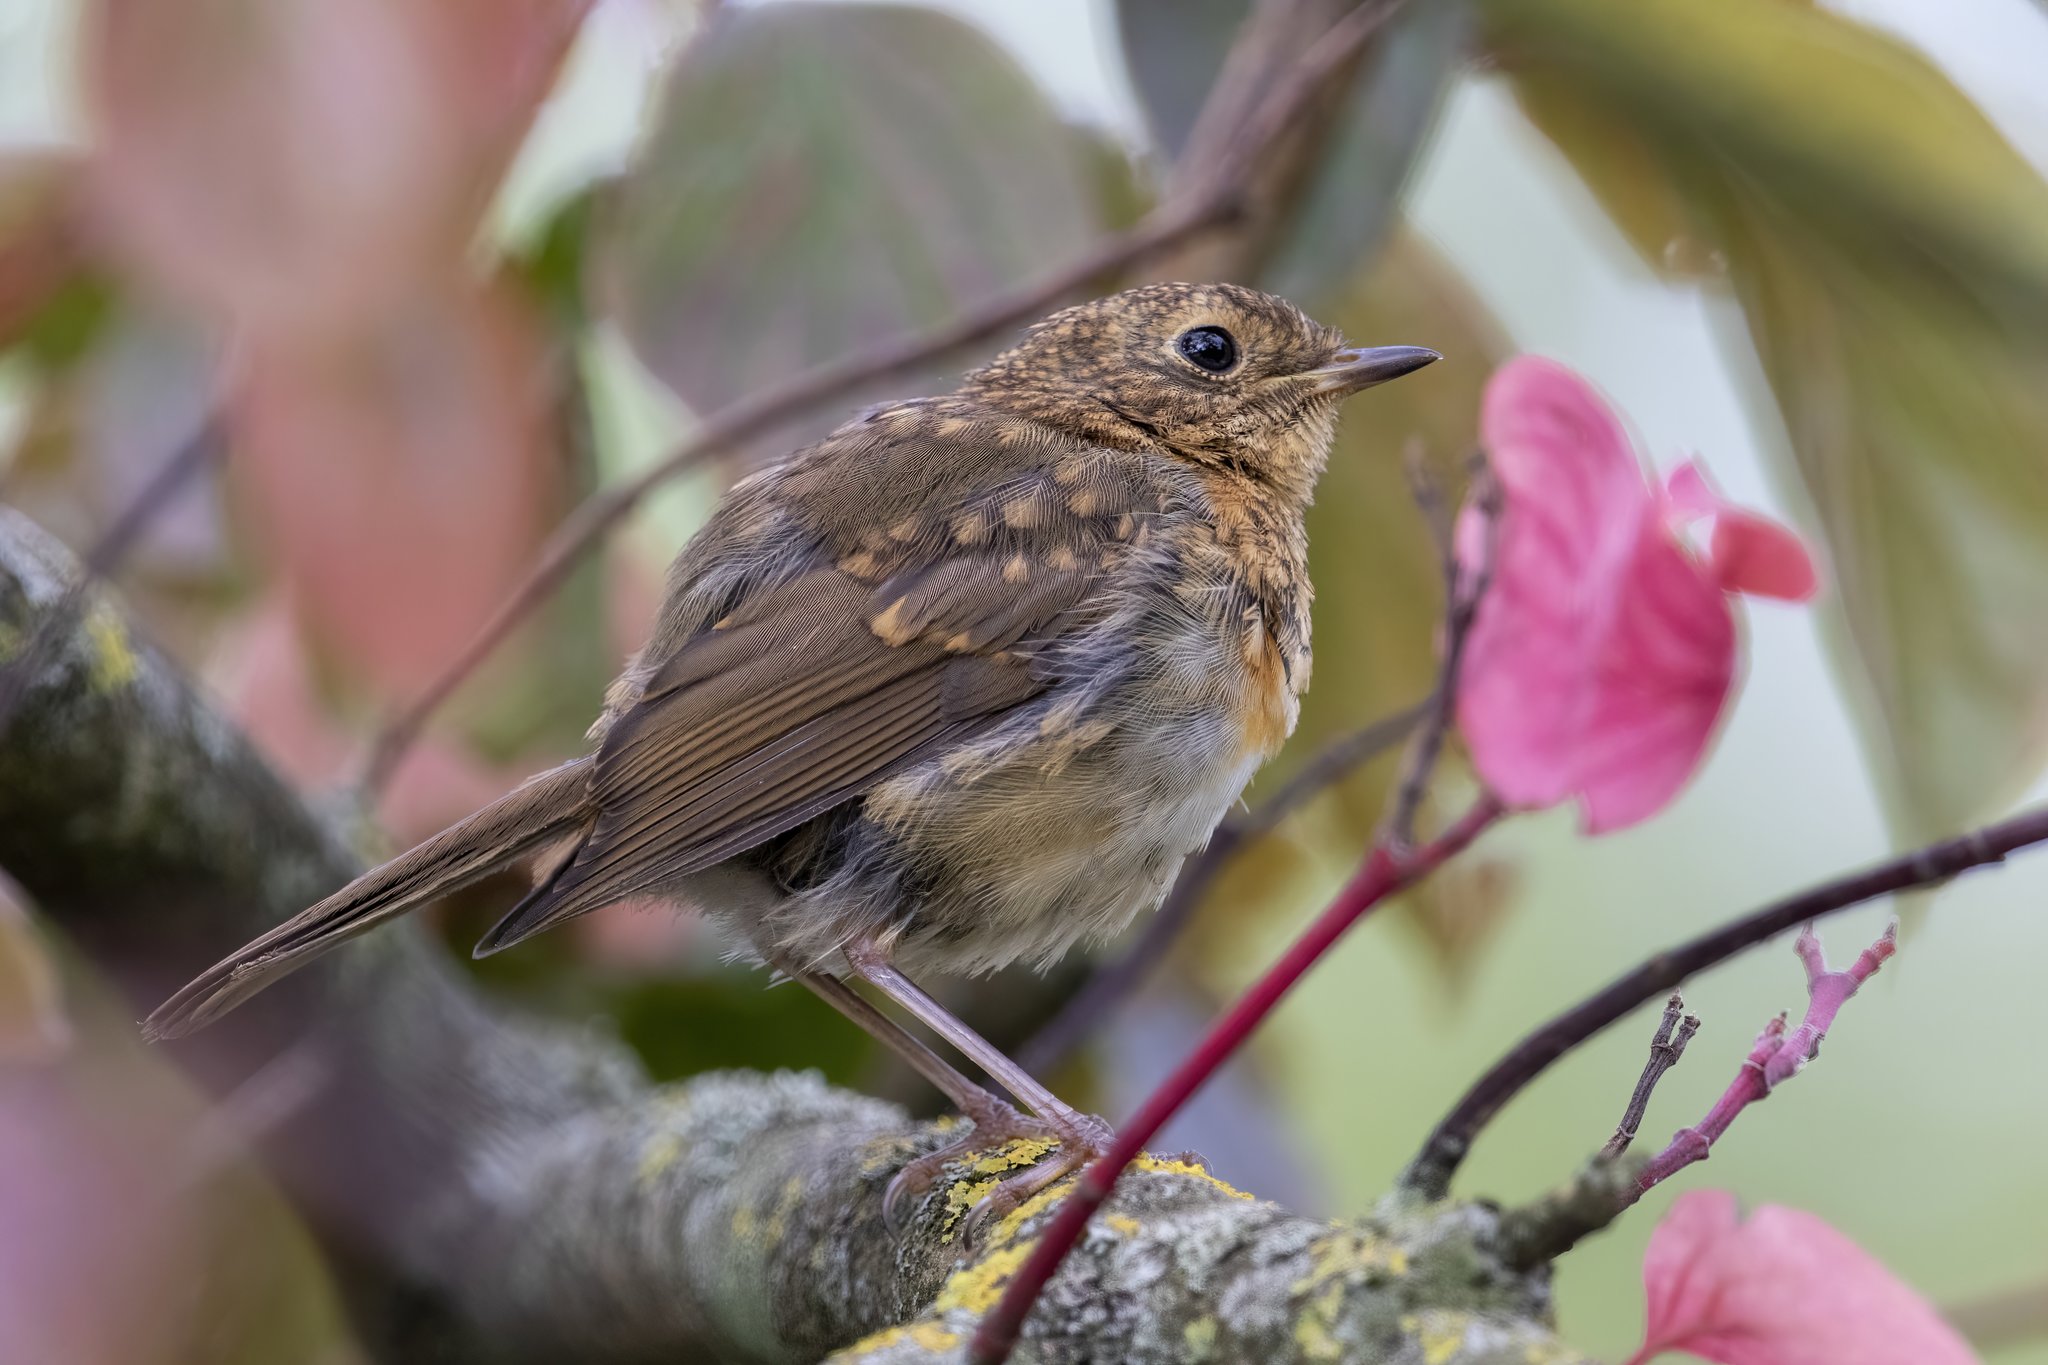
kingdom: Animalia
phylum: Chordata
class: Aves
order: Passeriformes
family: Muscicapidae
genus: Erithacus
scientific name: Erithacus rubecula
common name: European robin
